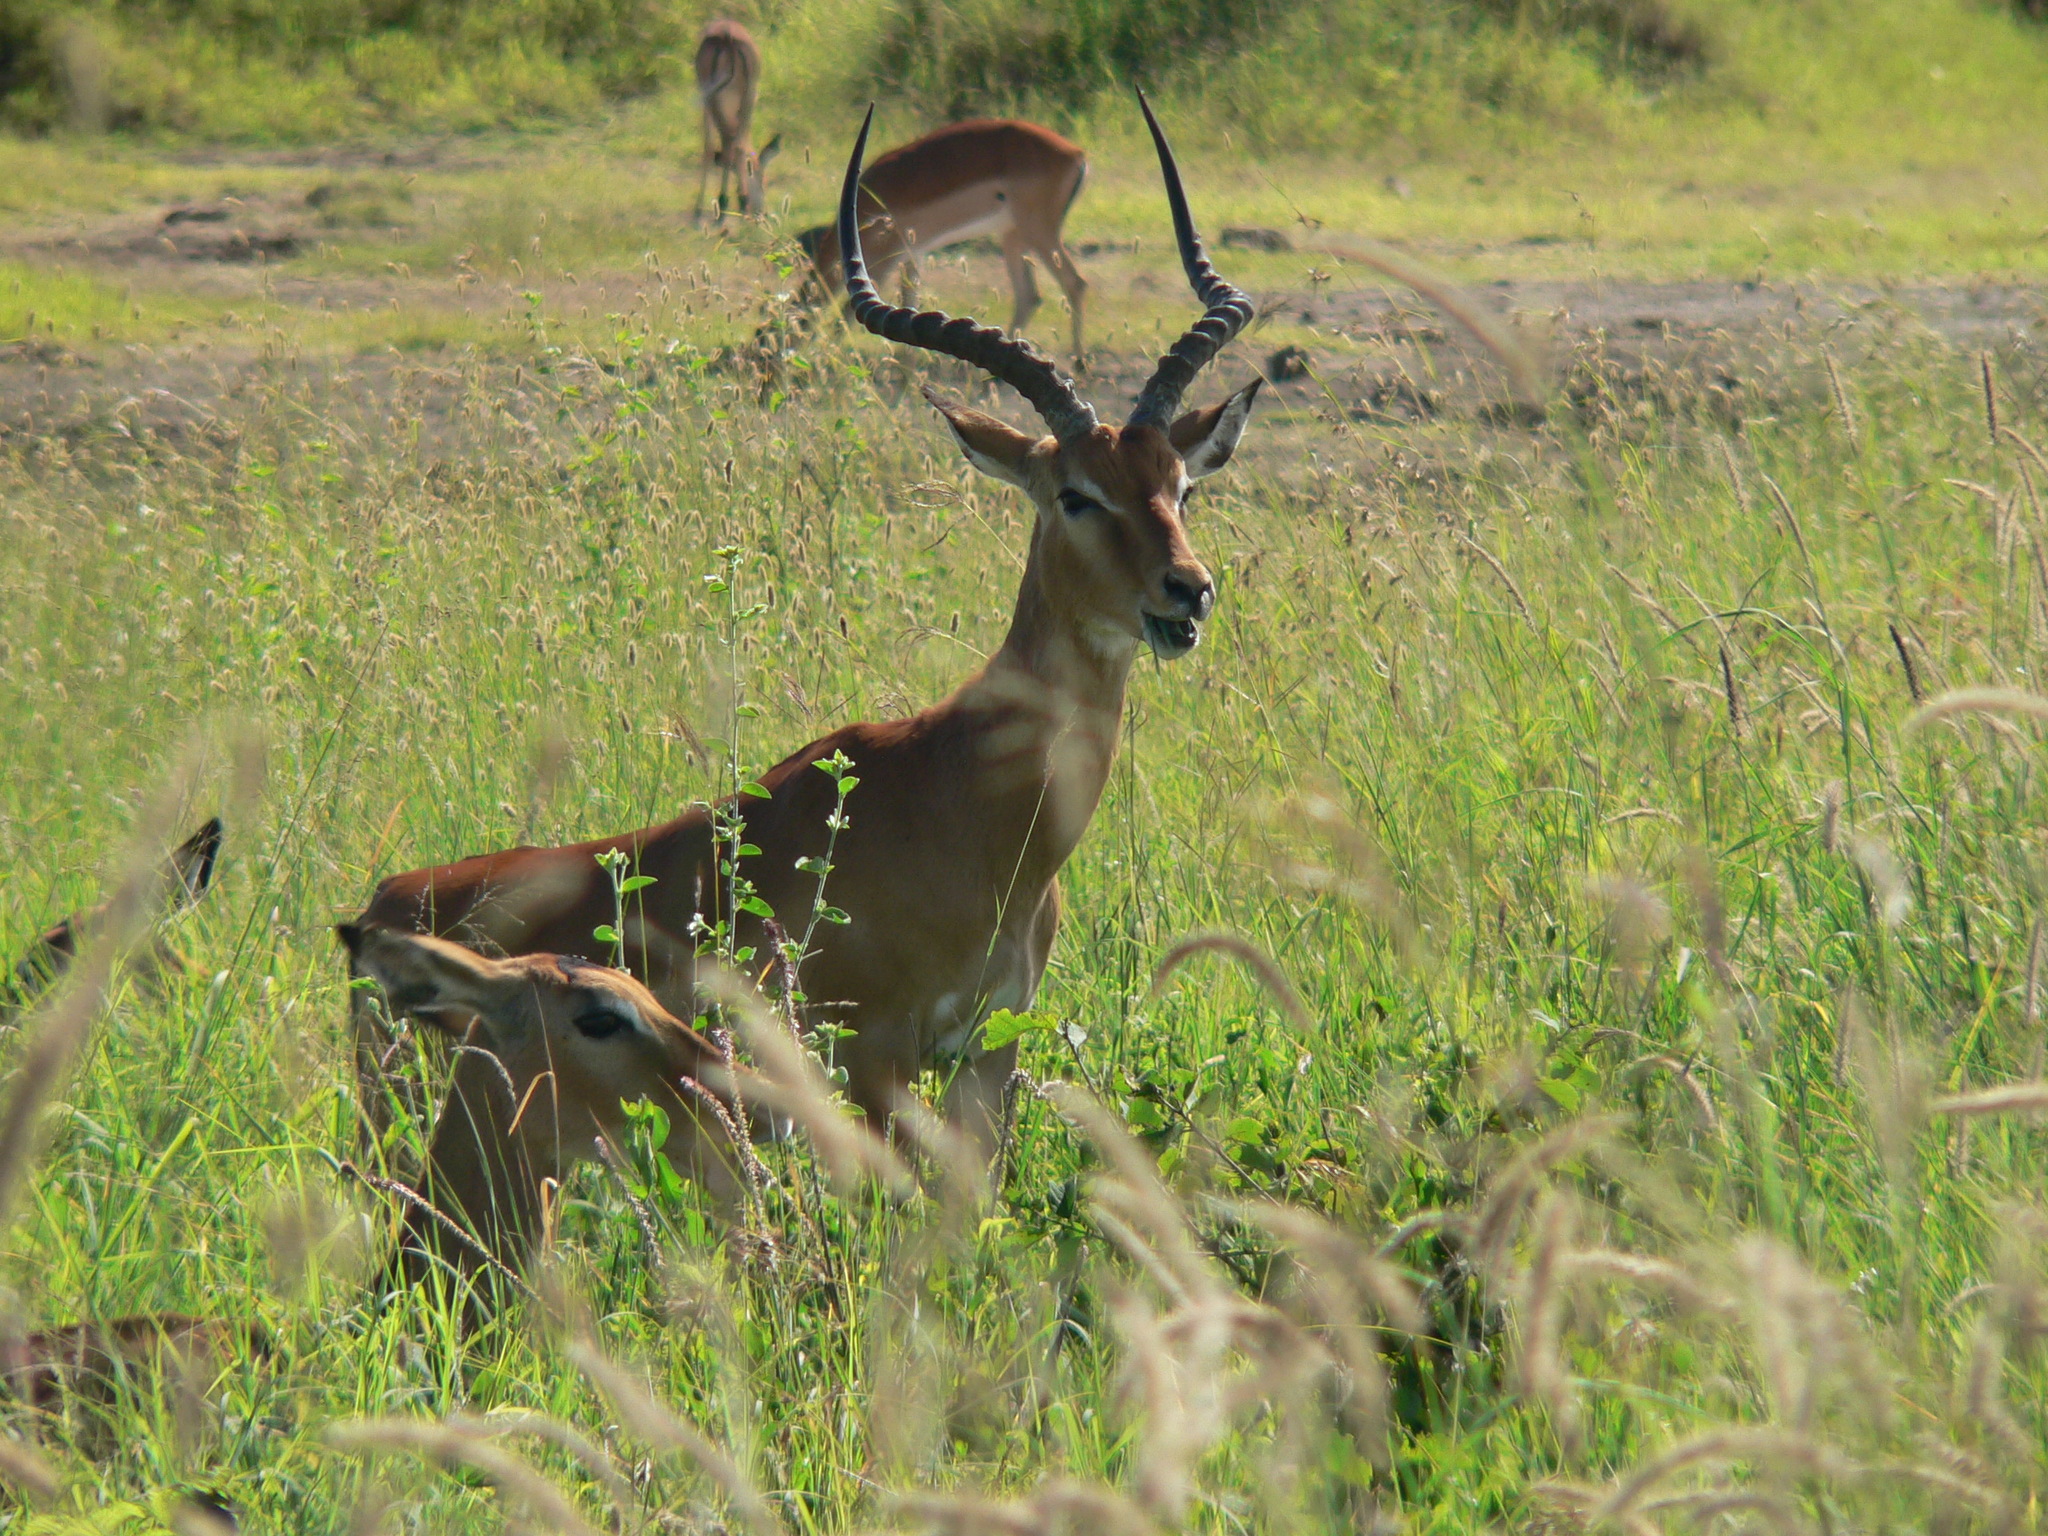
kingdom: Animalia
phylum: Chordata
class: Mammalia
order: Artiodactyla
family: Bovidae
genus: Aepyceros
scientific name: Aepyceros melampus
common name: Impala
